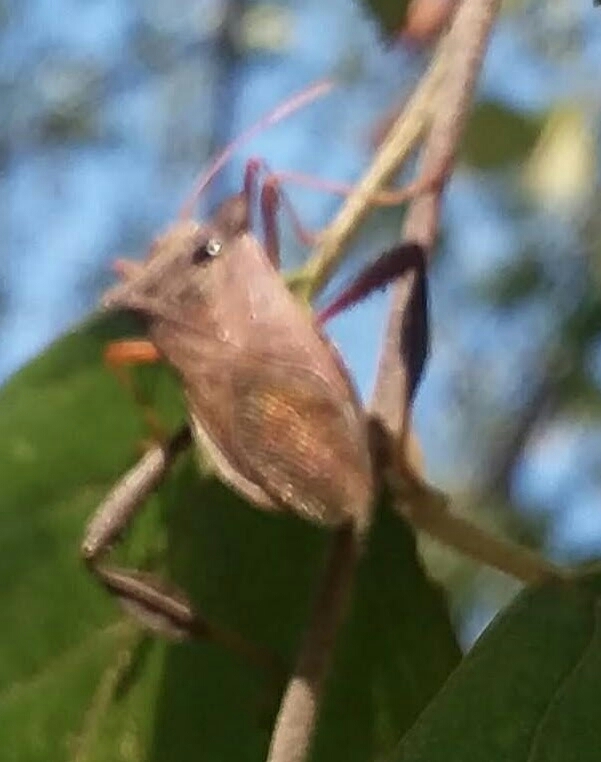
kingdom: Animalia
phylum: Arthropoda
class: Insecta
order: Hemiptera
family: Coreidae
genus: Leptoglossus
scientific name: Leptoglossus fulvicornis
